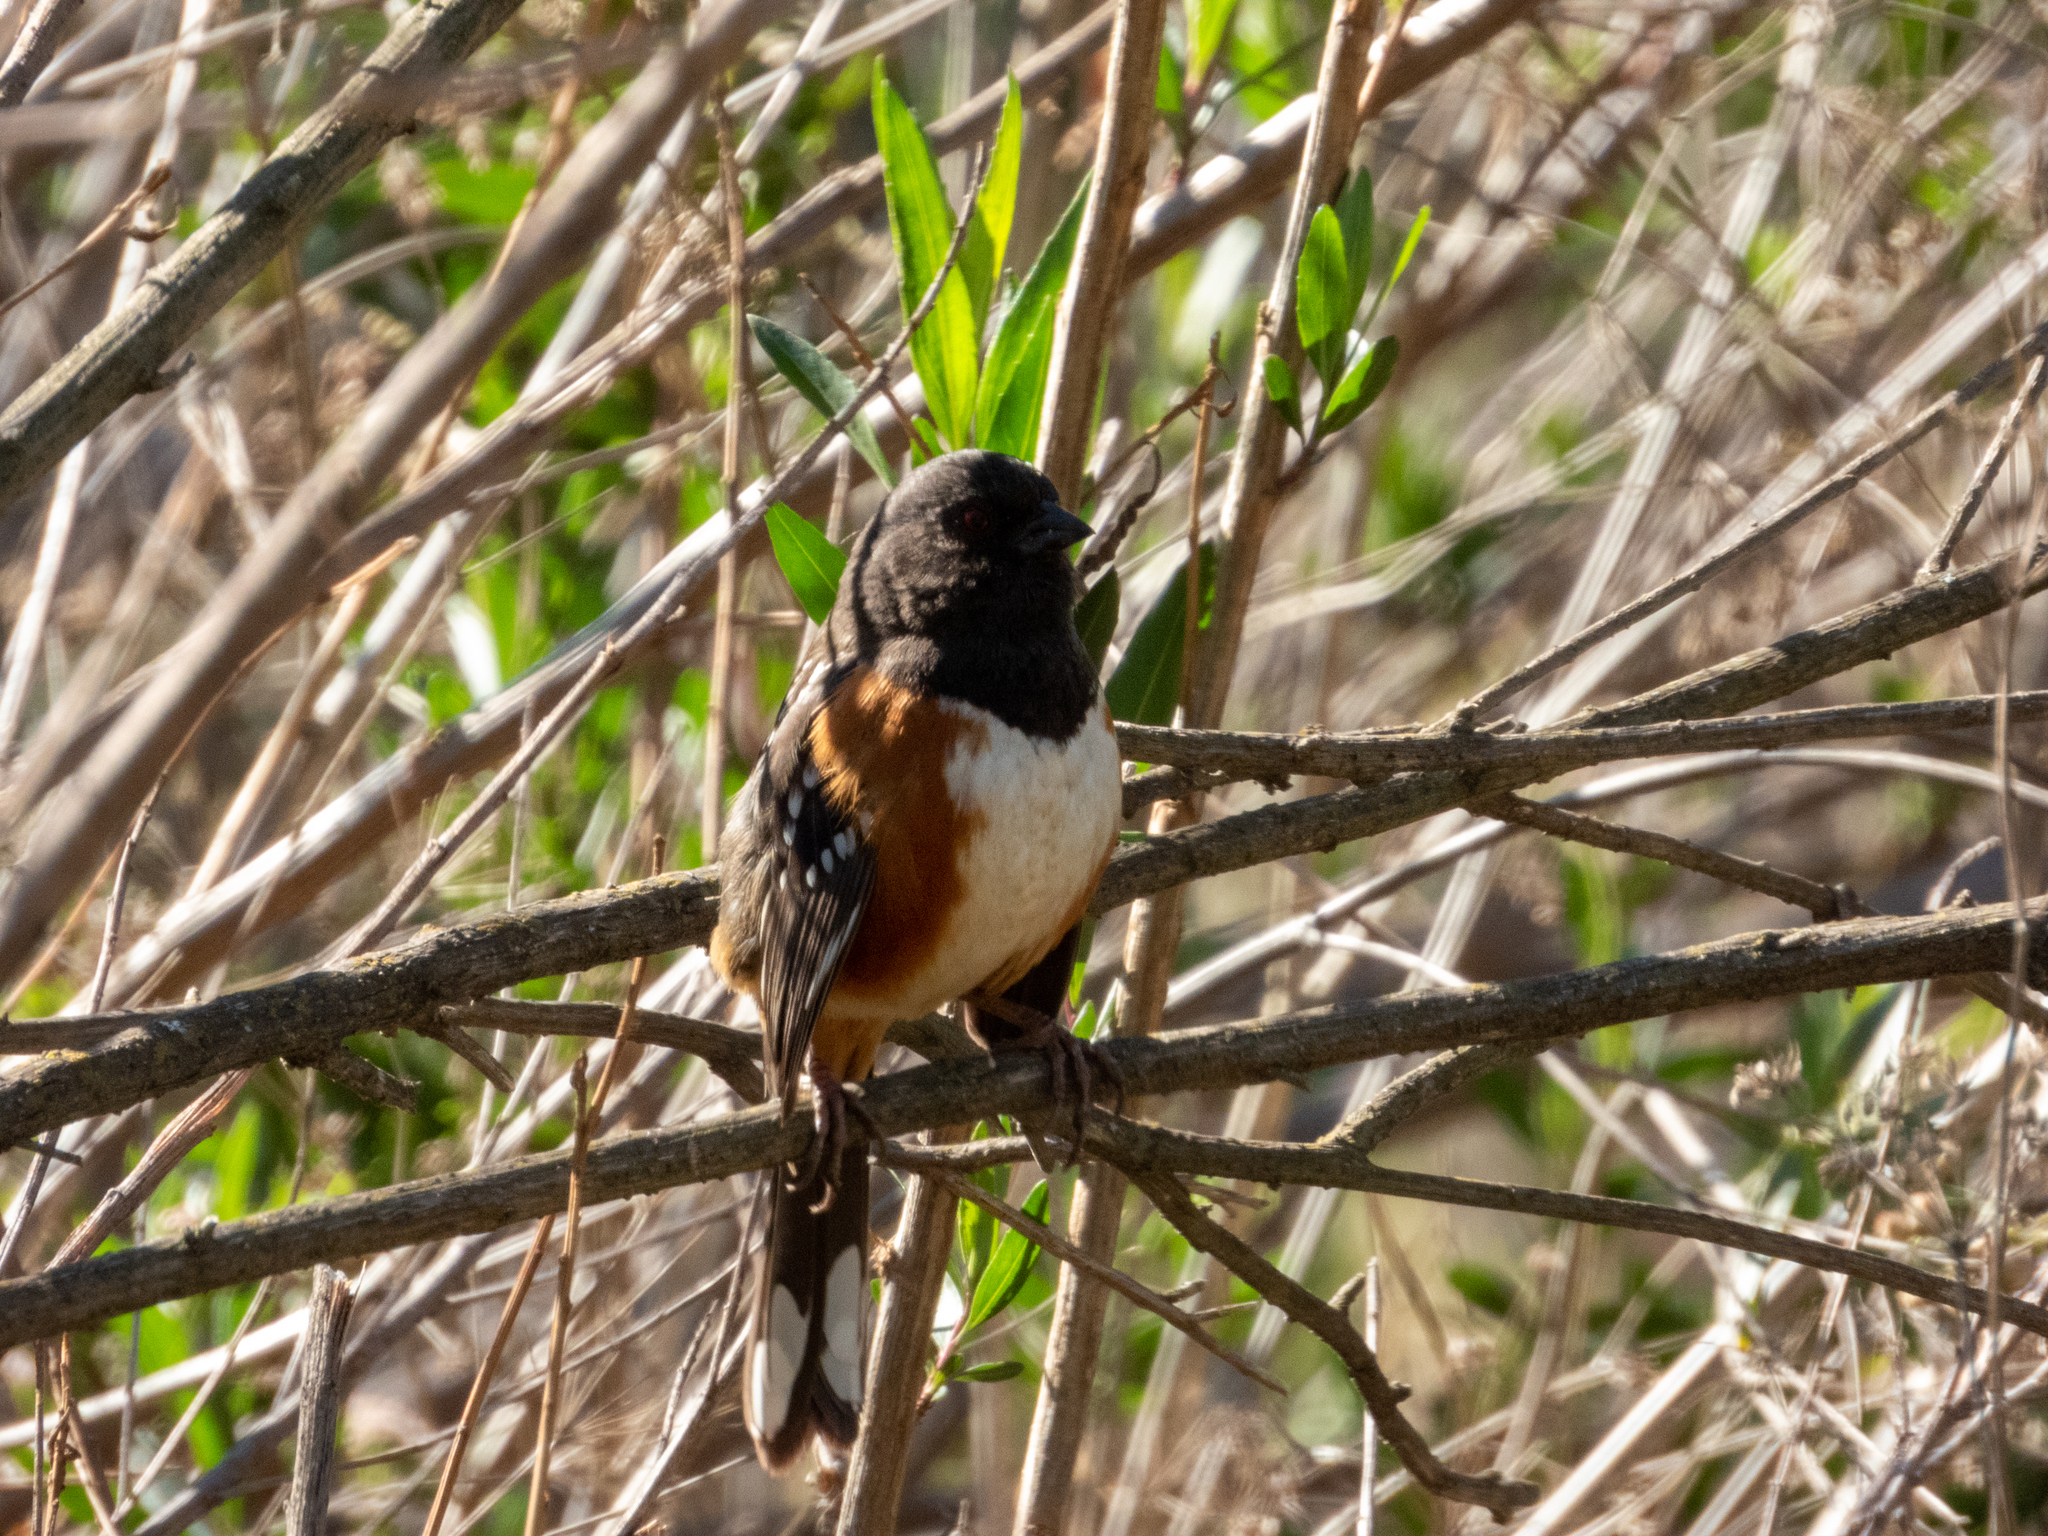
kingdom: Animalia
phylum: Chordata
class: Aves
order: Passeriformes
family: Passerellidae
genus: Pipilo
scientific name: Pipilo maculatus
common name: Spotted towhee
